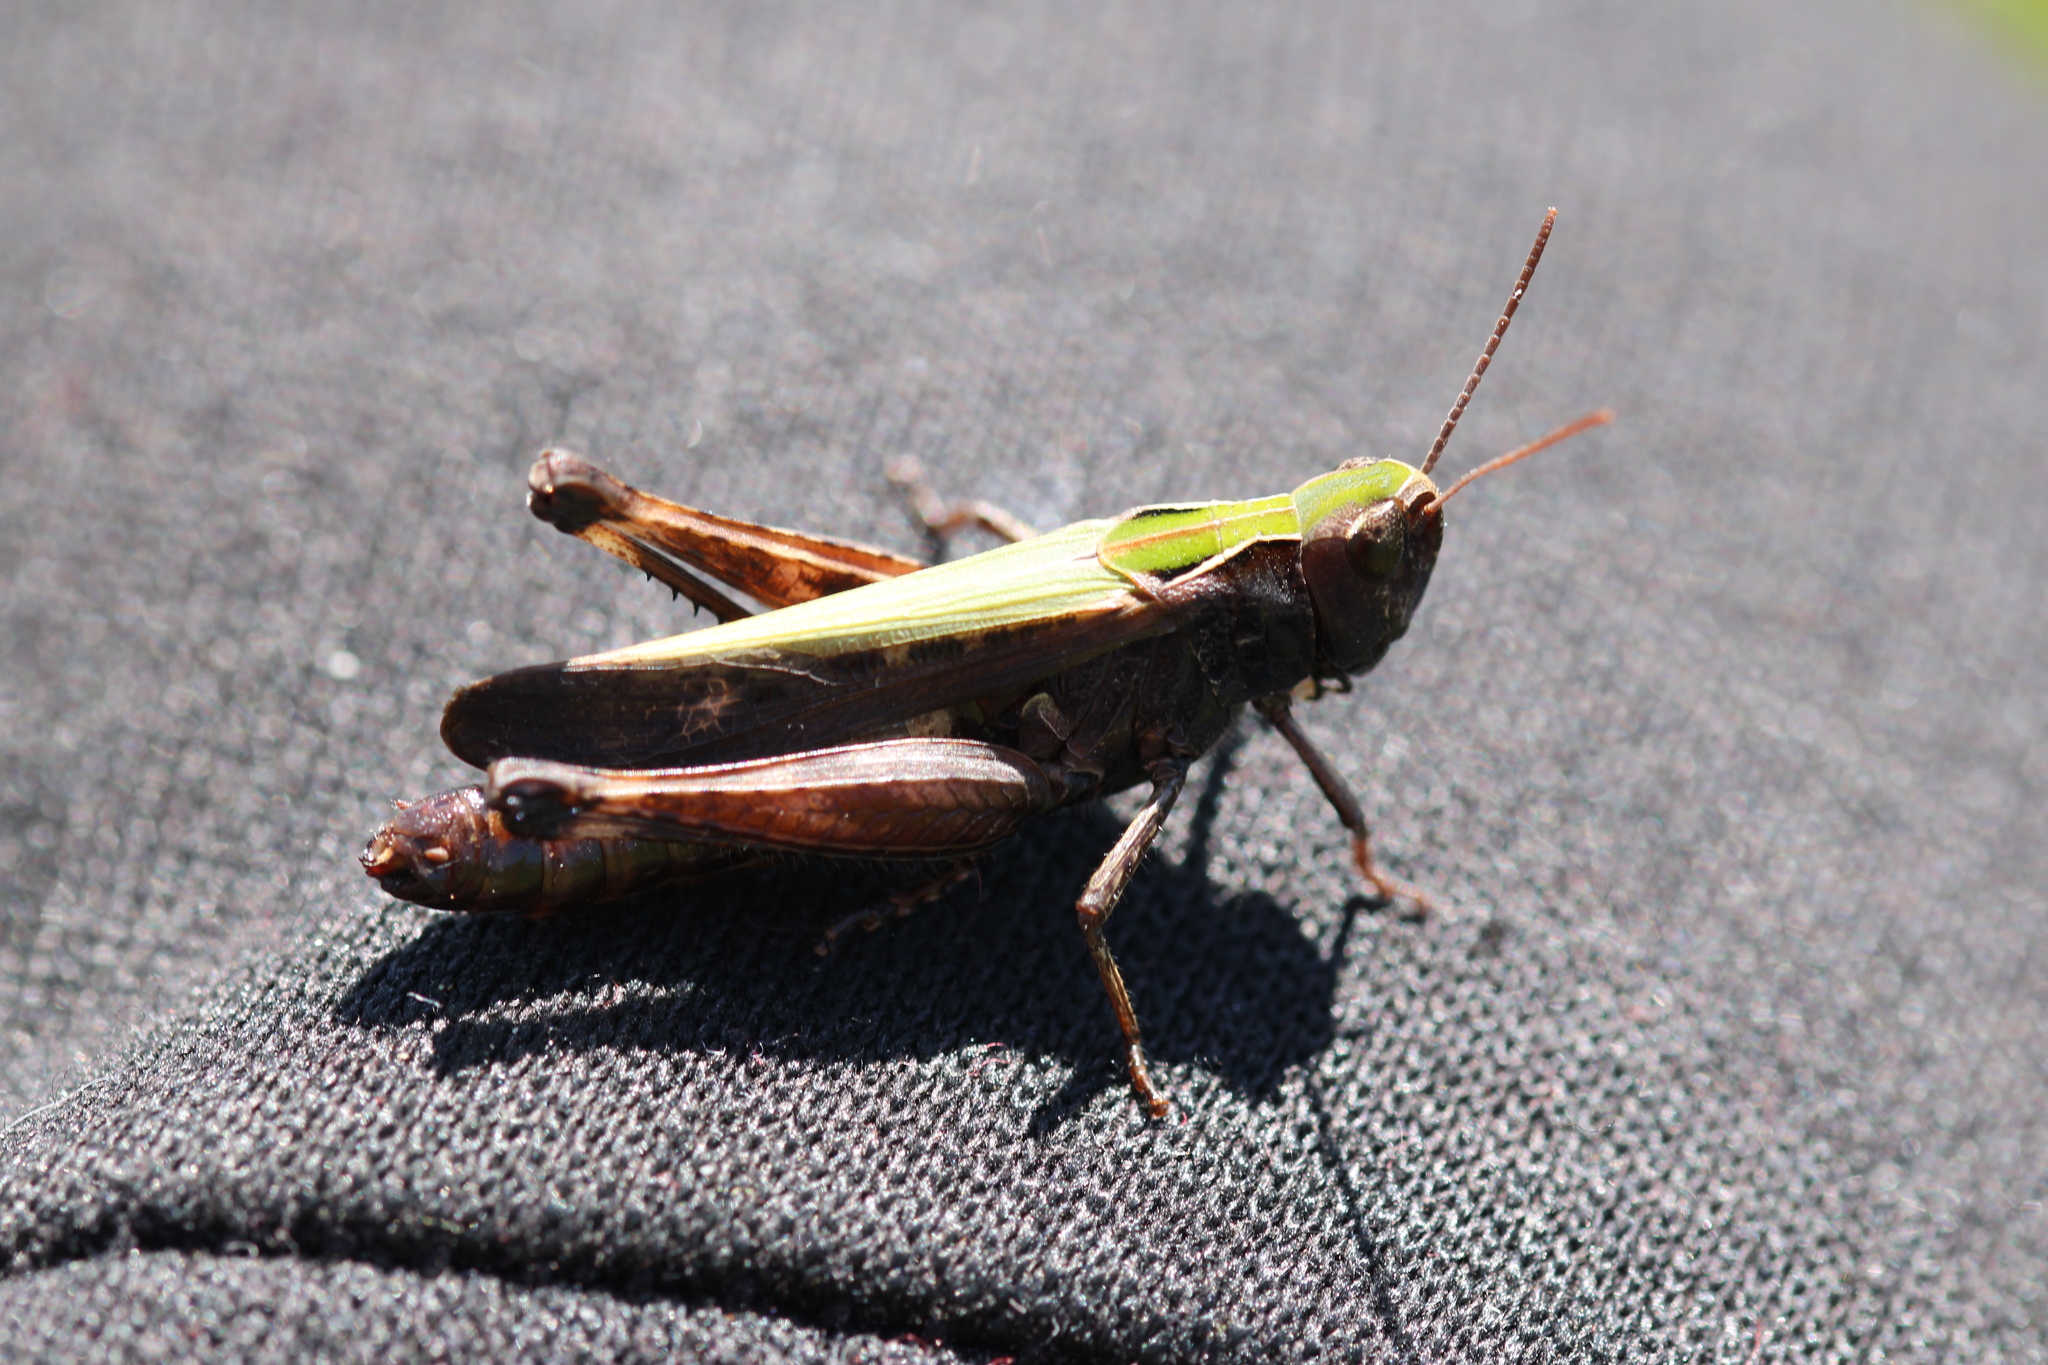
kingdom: Animalia
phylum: Arthropoda
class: Insecta
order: Orthoptera
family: Acrididae
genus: Omocestus
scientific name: Omocestus rufipes
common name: Woodland grasshopper
